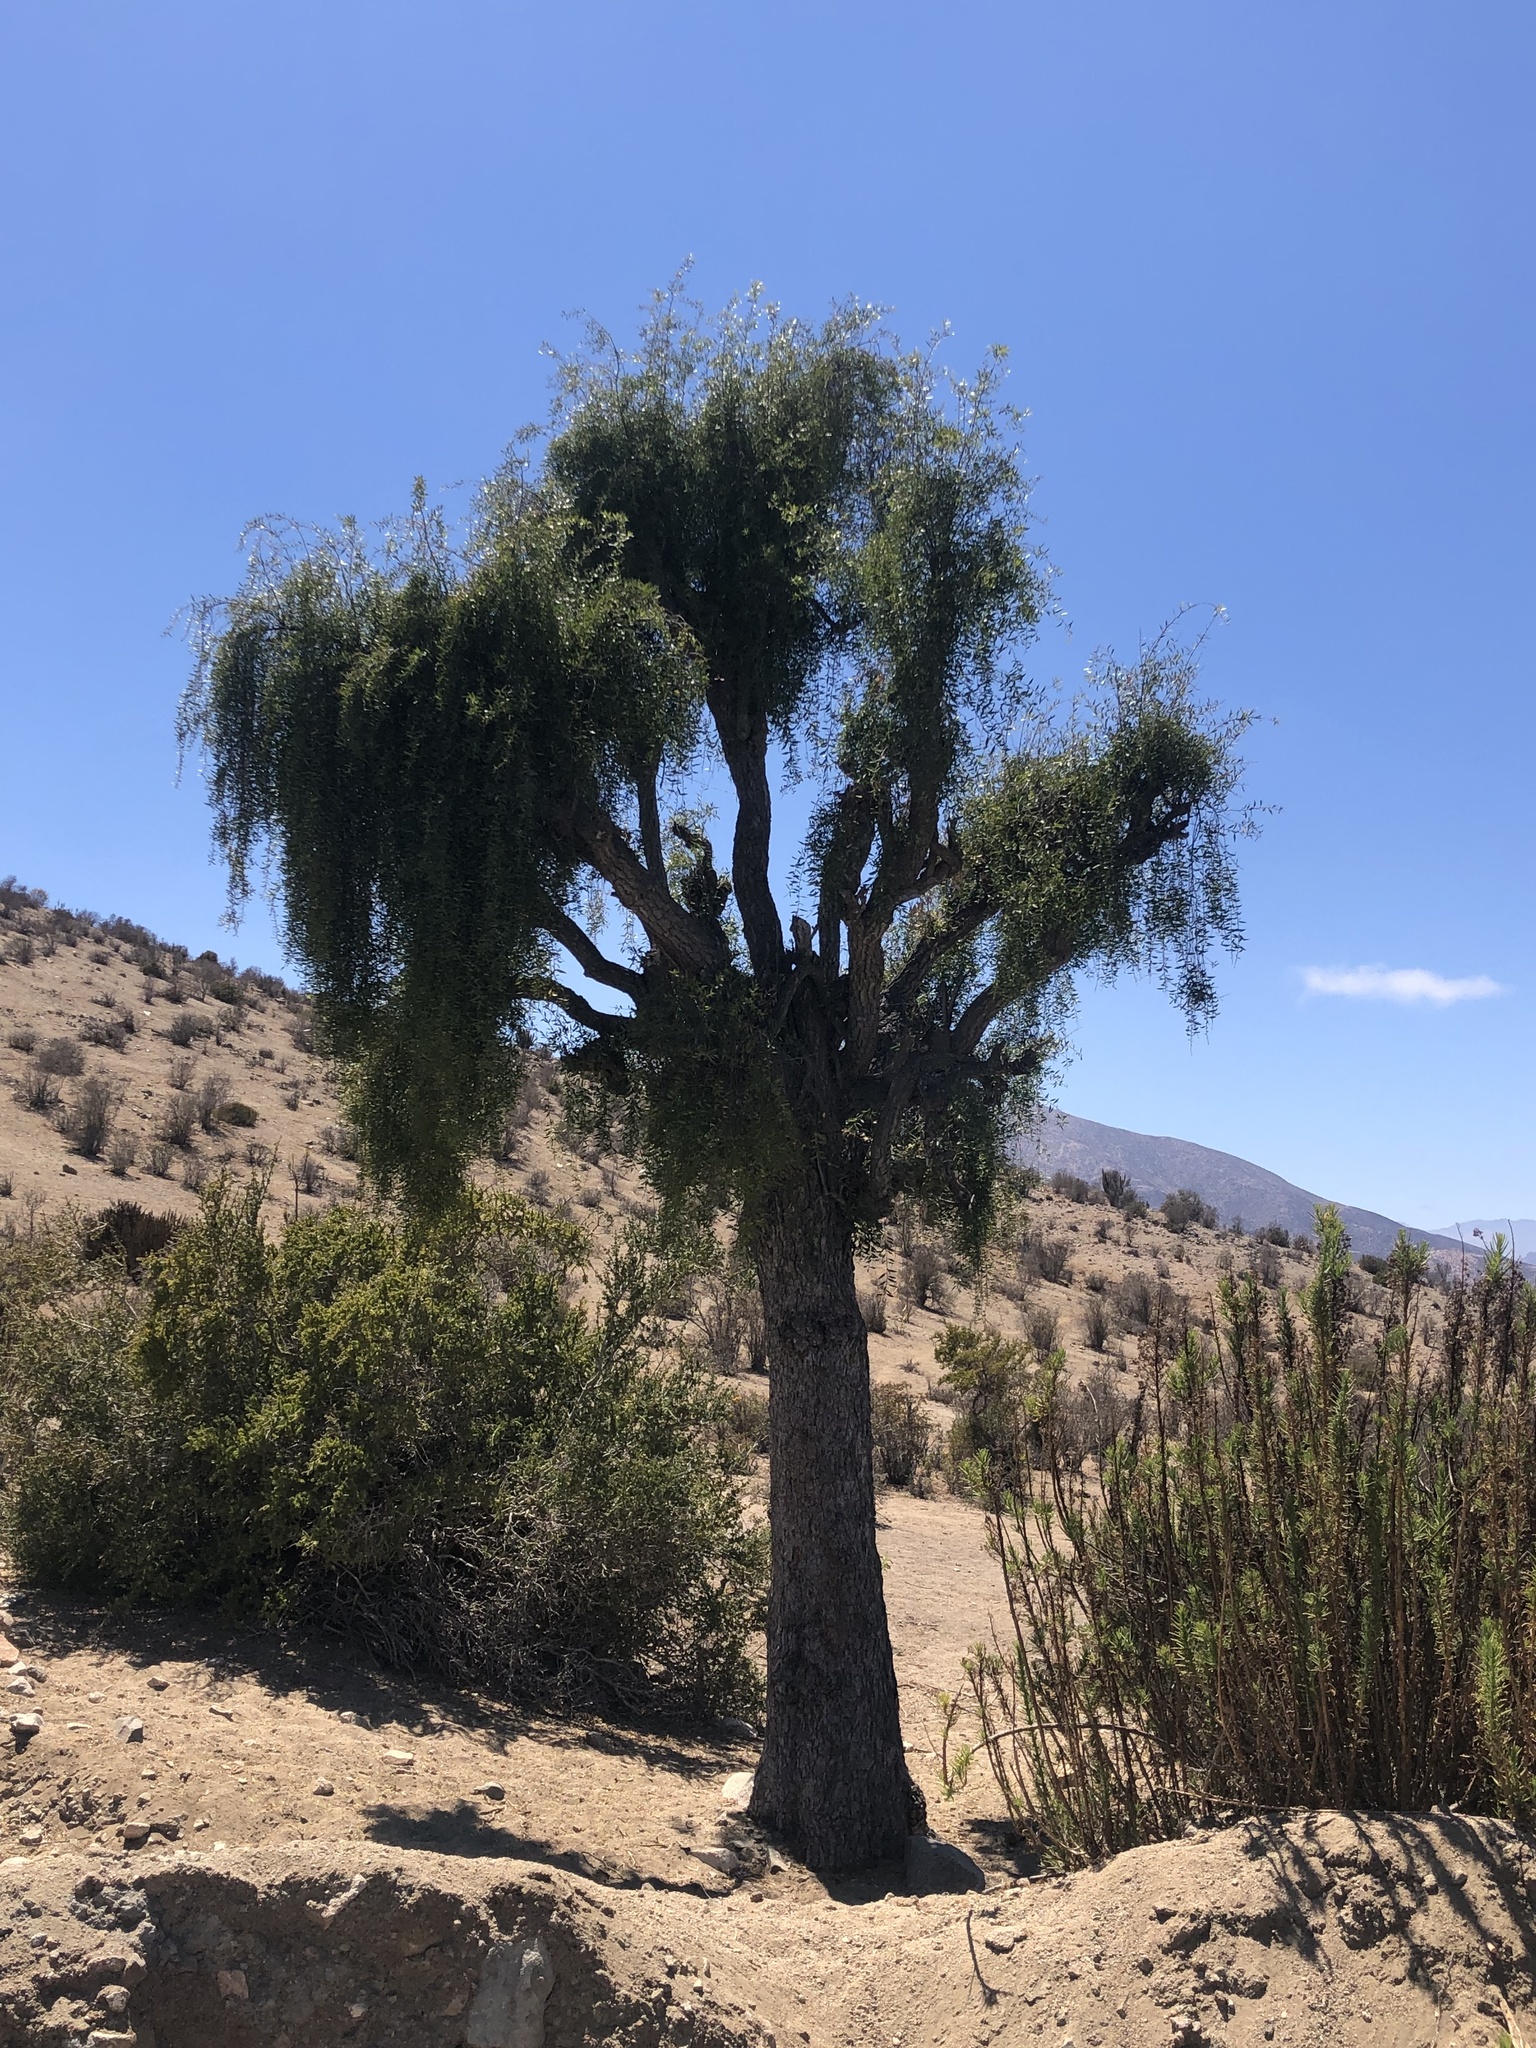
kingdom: Plantae
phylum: Tracheophyta
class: Magnoliopsida
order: Celastrales
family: Celastraceae
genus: Maytenus
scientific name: Maytenus boaria
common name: Mayten
